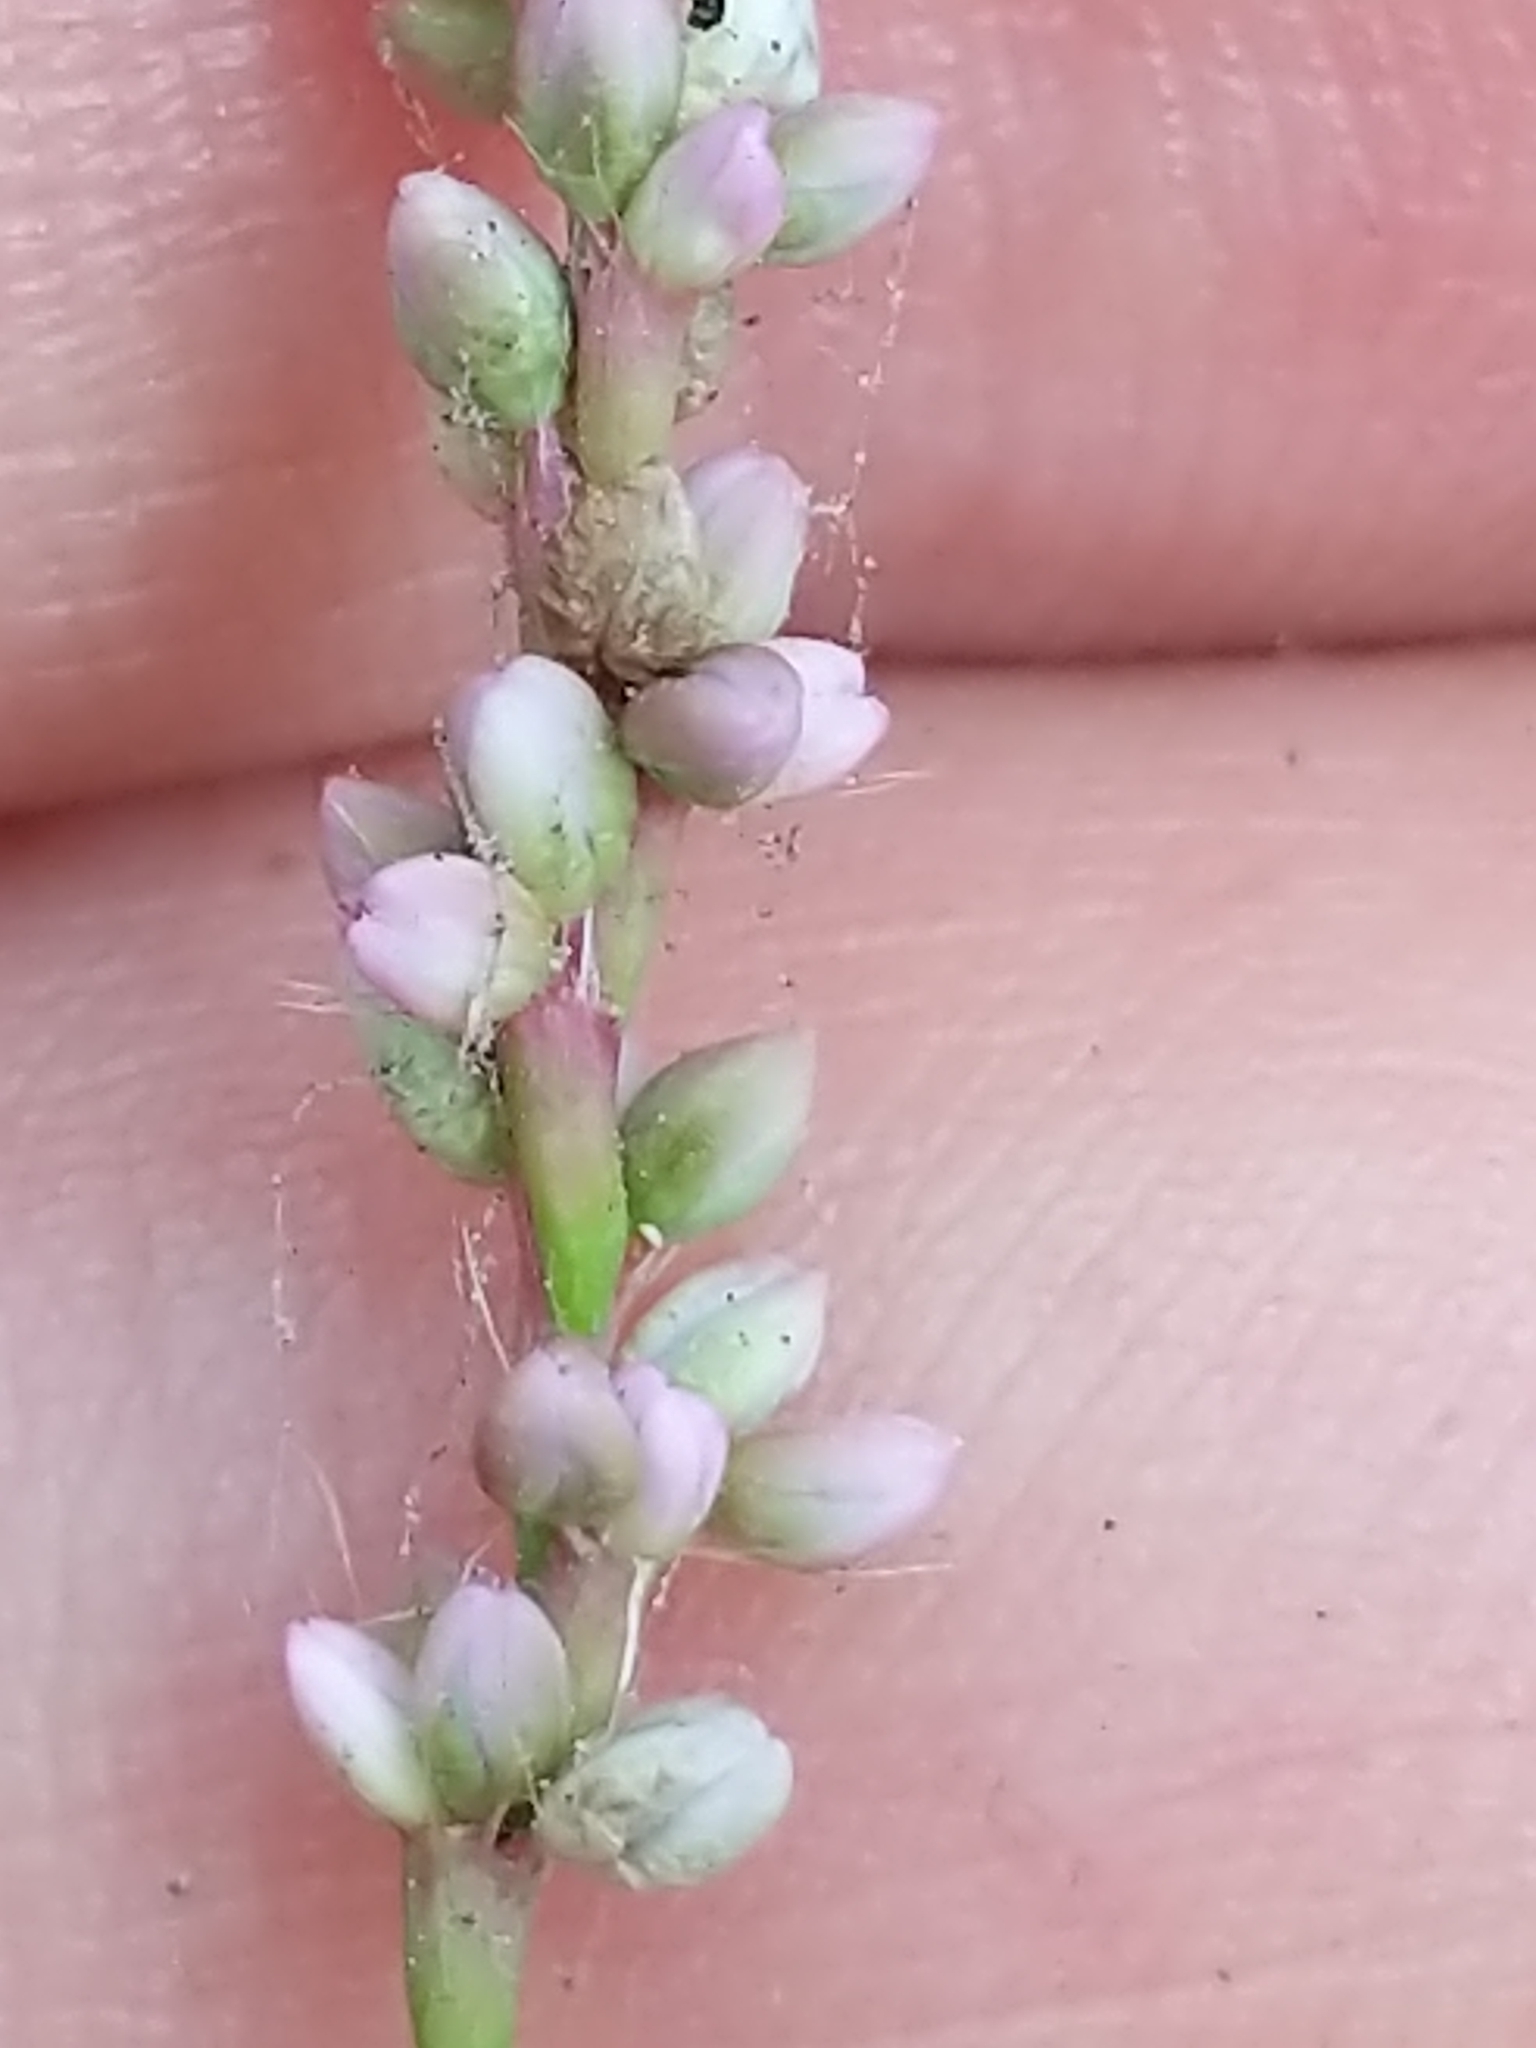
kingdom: Plantae
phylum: Tracheophyta
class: Magnoliopsida
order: Caryophyllales
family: Polygonaceae
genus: Persicaria
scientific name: Persicaria longiseta
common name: Bristly lady's-thumb
